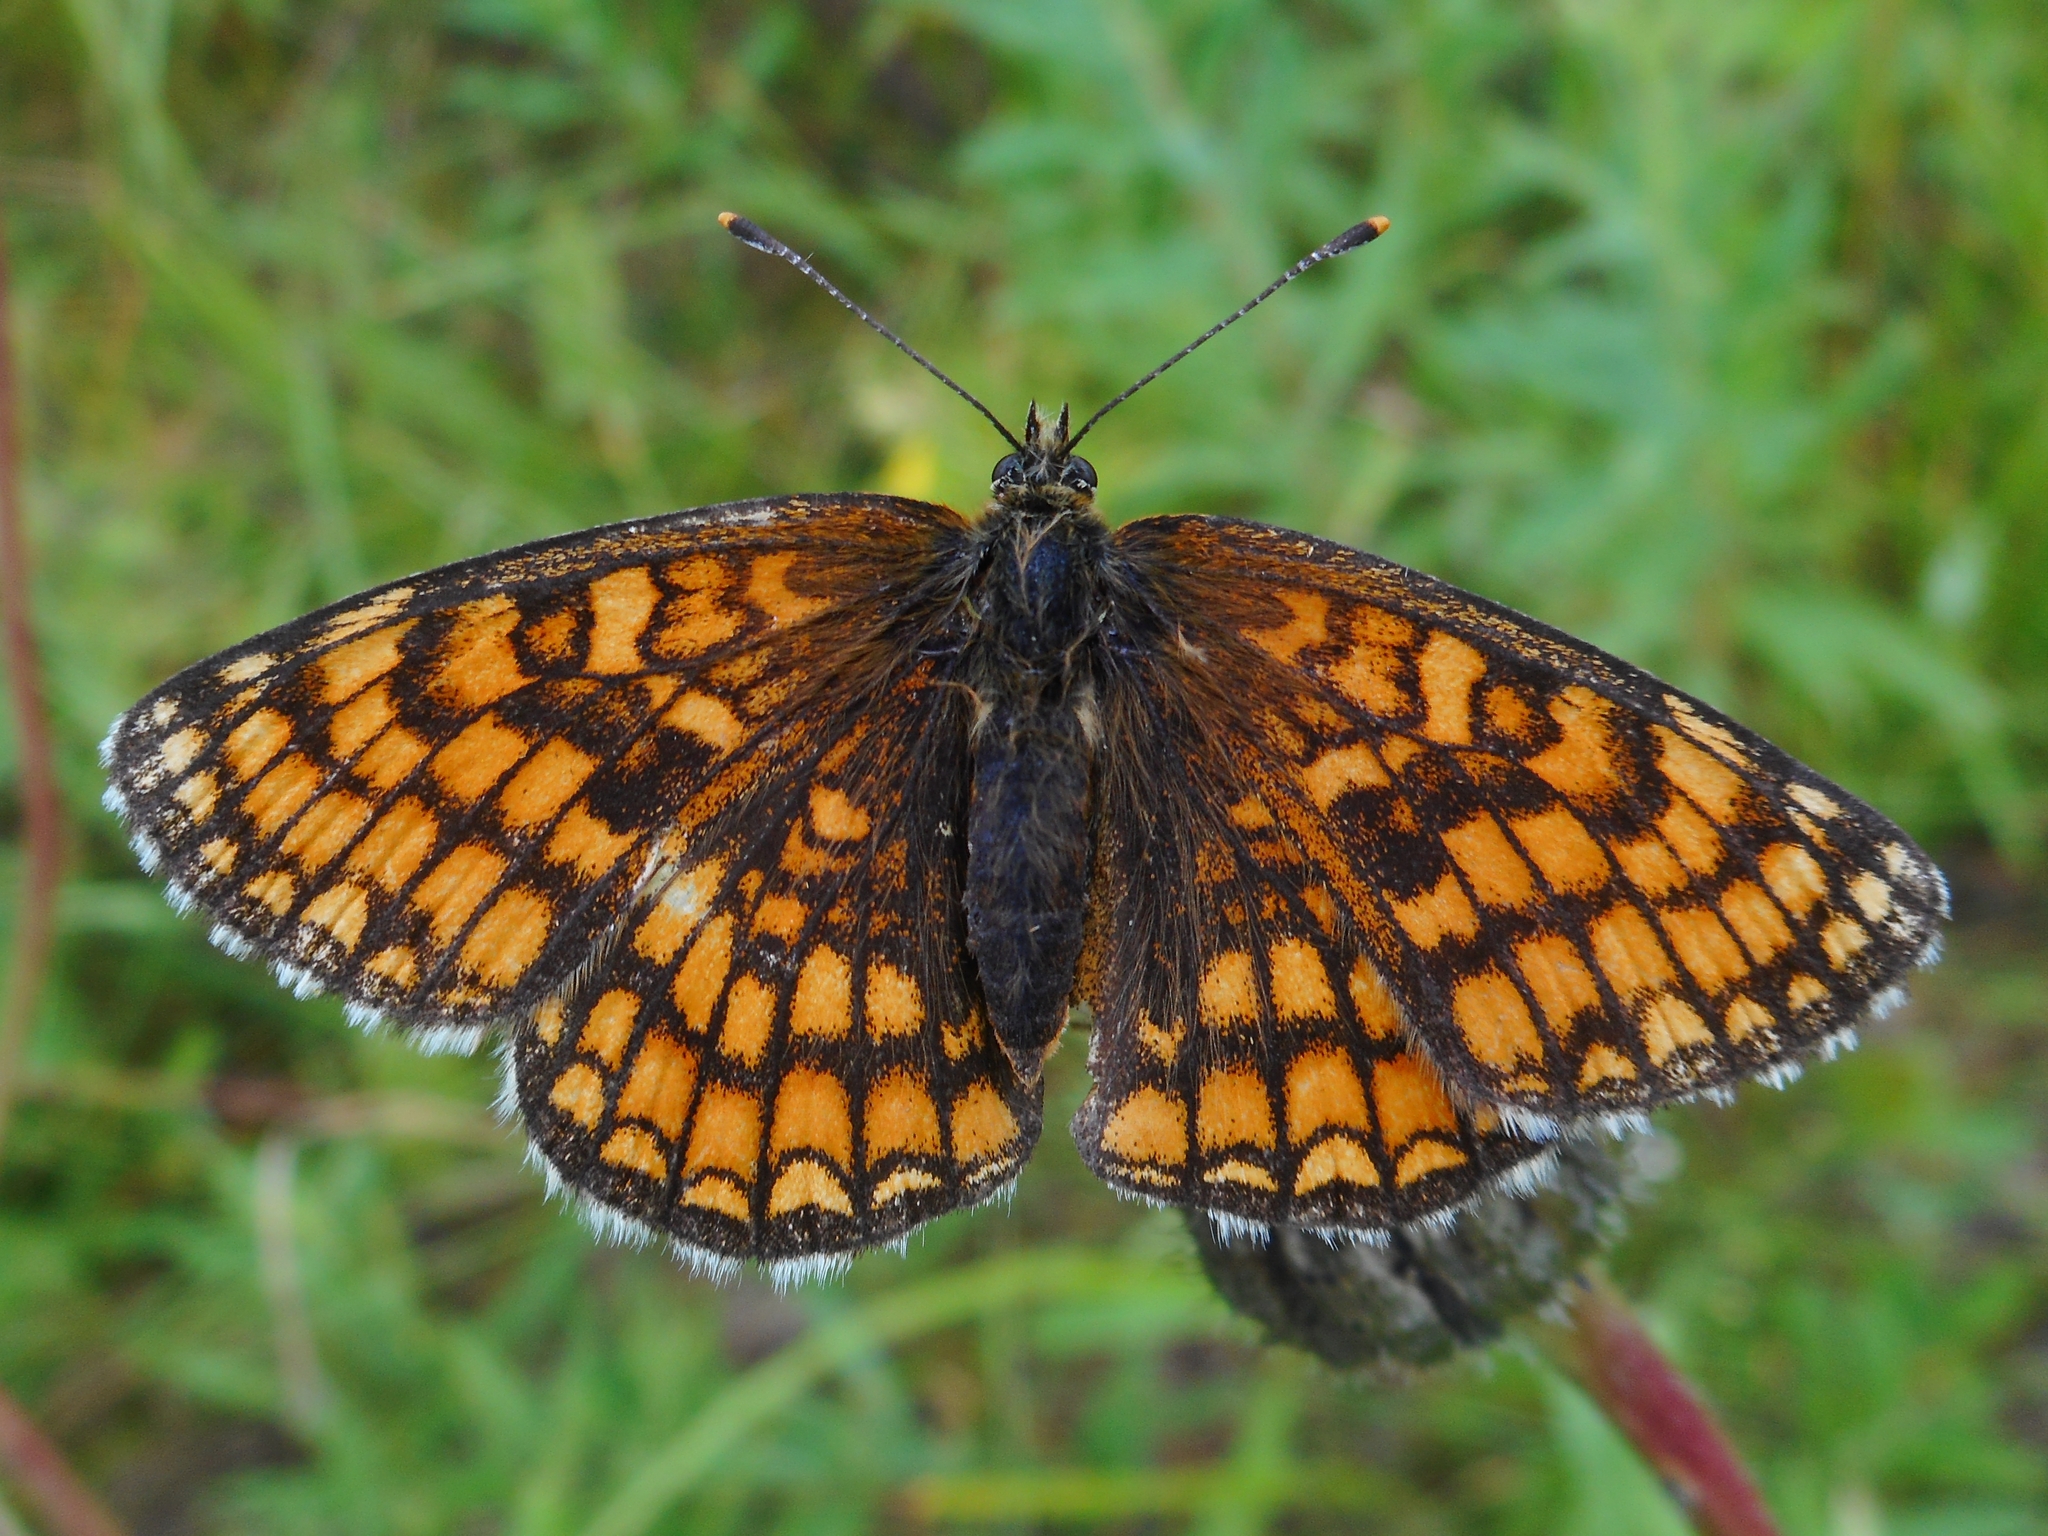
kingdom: Animalia
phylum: Arthropoda
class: Insecta
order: Lepidoptera
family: Nymphalidae
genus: Melitaea
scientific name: Melitaea athalia
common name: Heath fritillary
